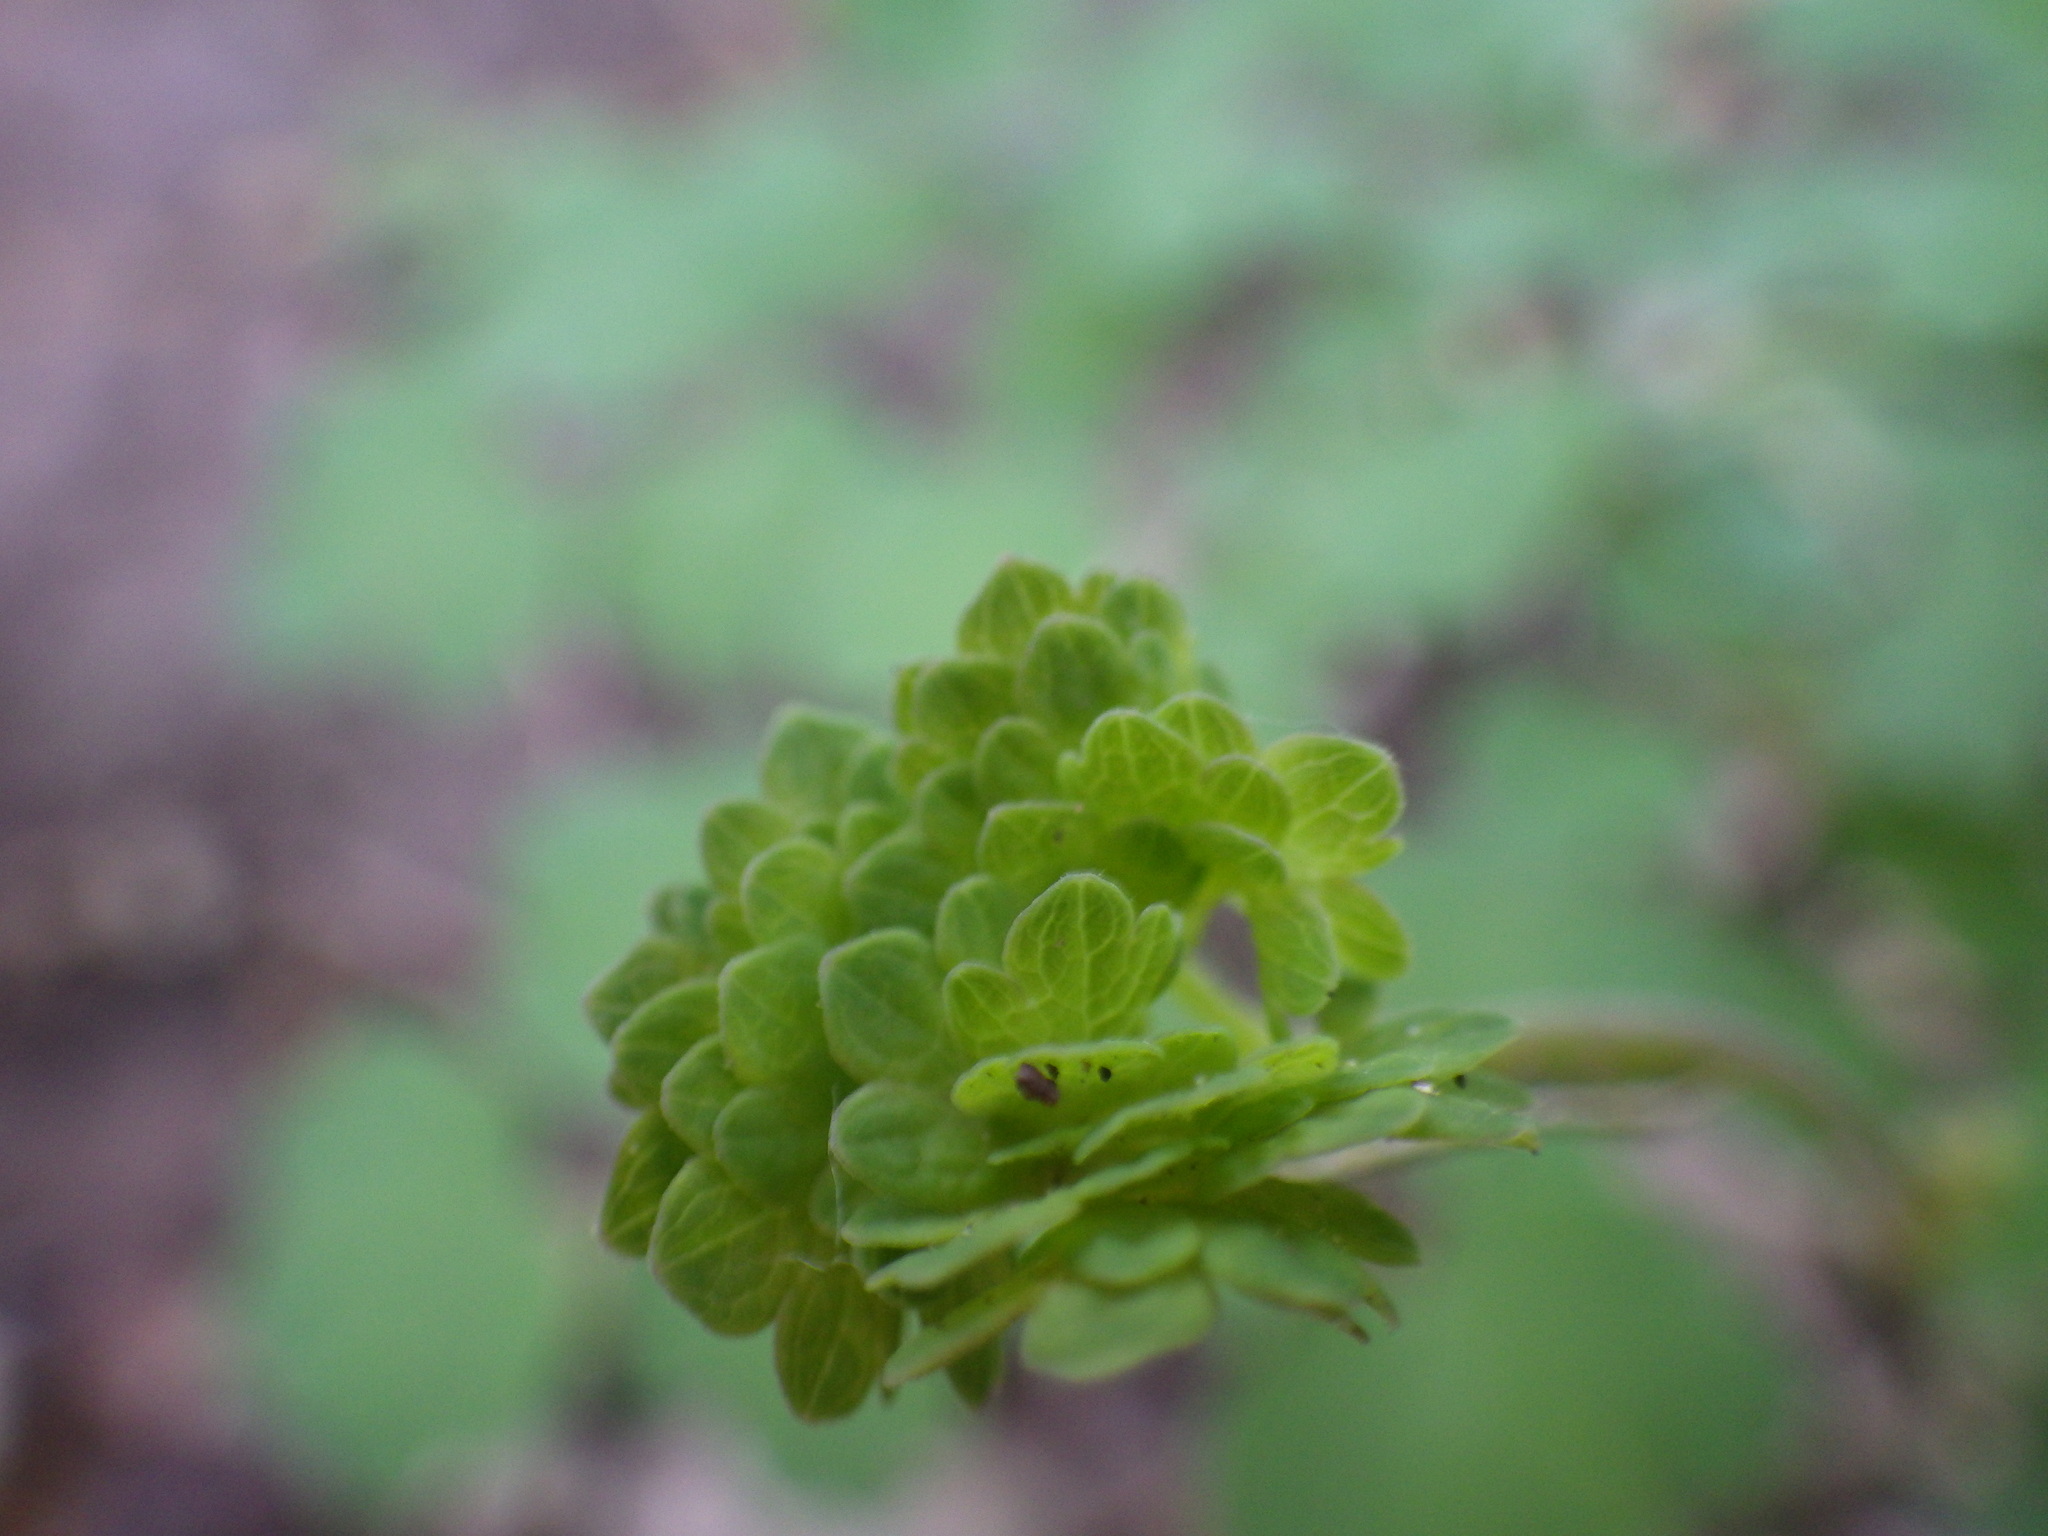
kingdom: Plantae
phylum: Tracheophyta
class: Magnoliopsida
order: Ranunculales
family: Ranunculaceae
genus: Thalictrum
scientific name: Thalictrum fendleri
